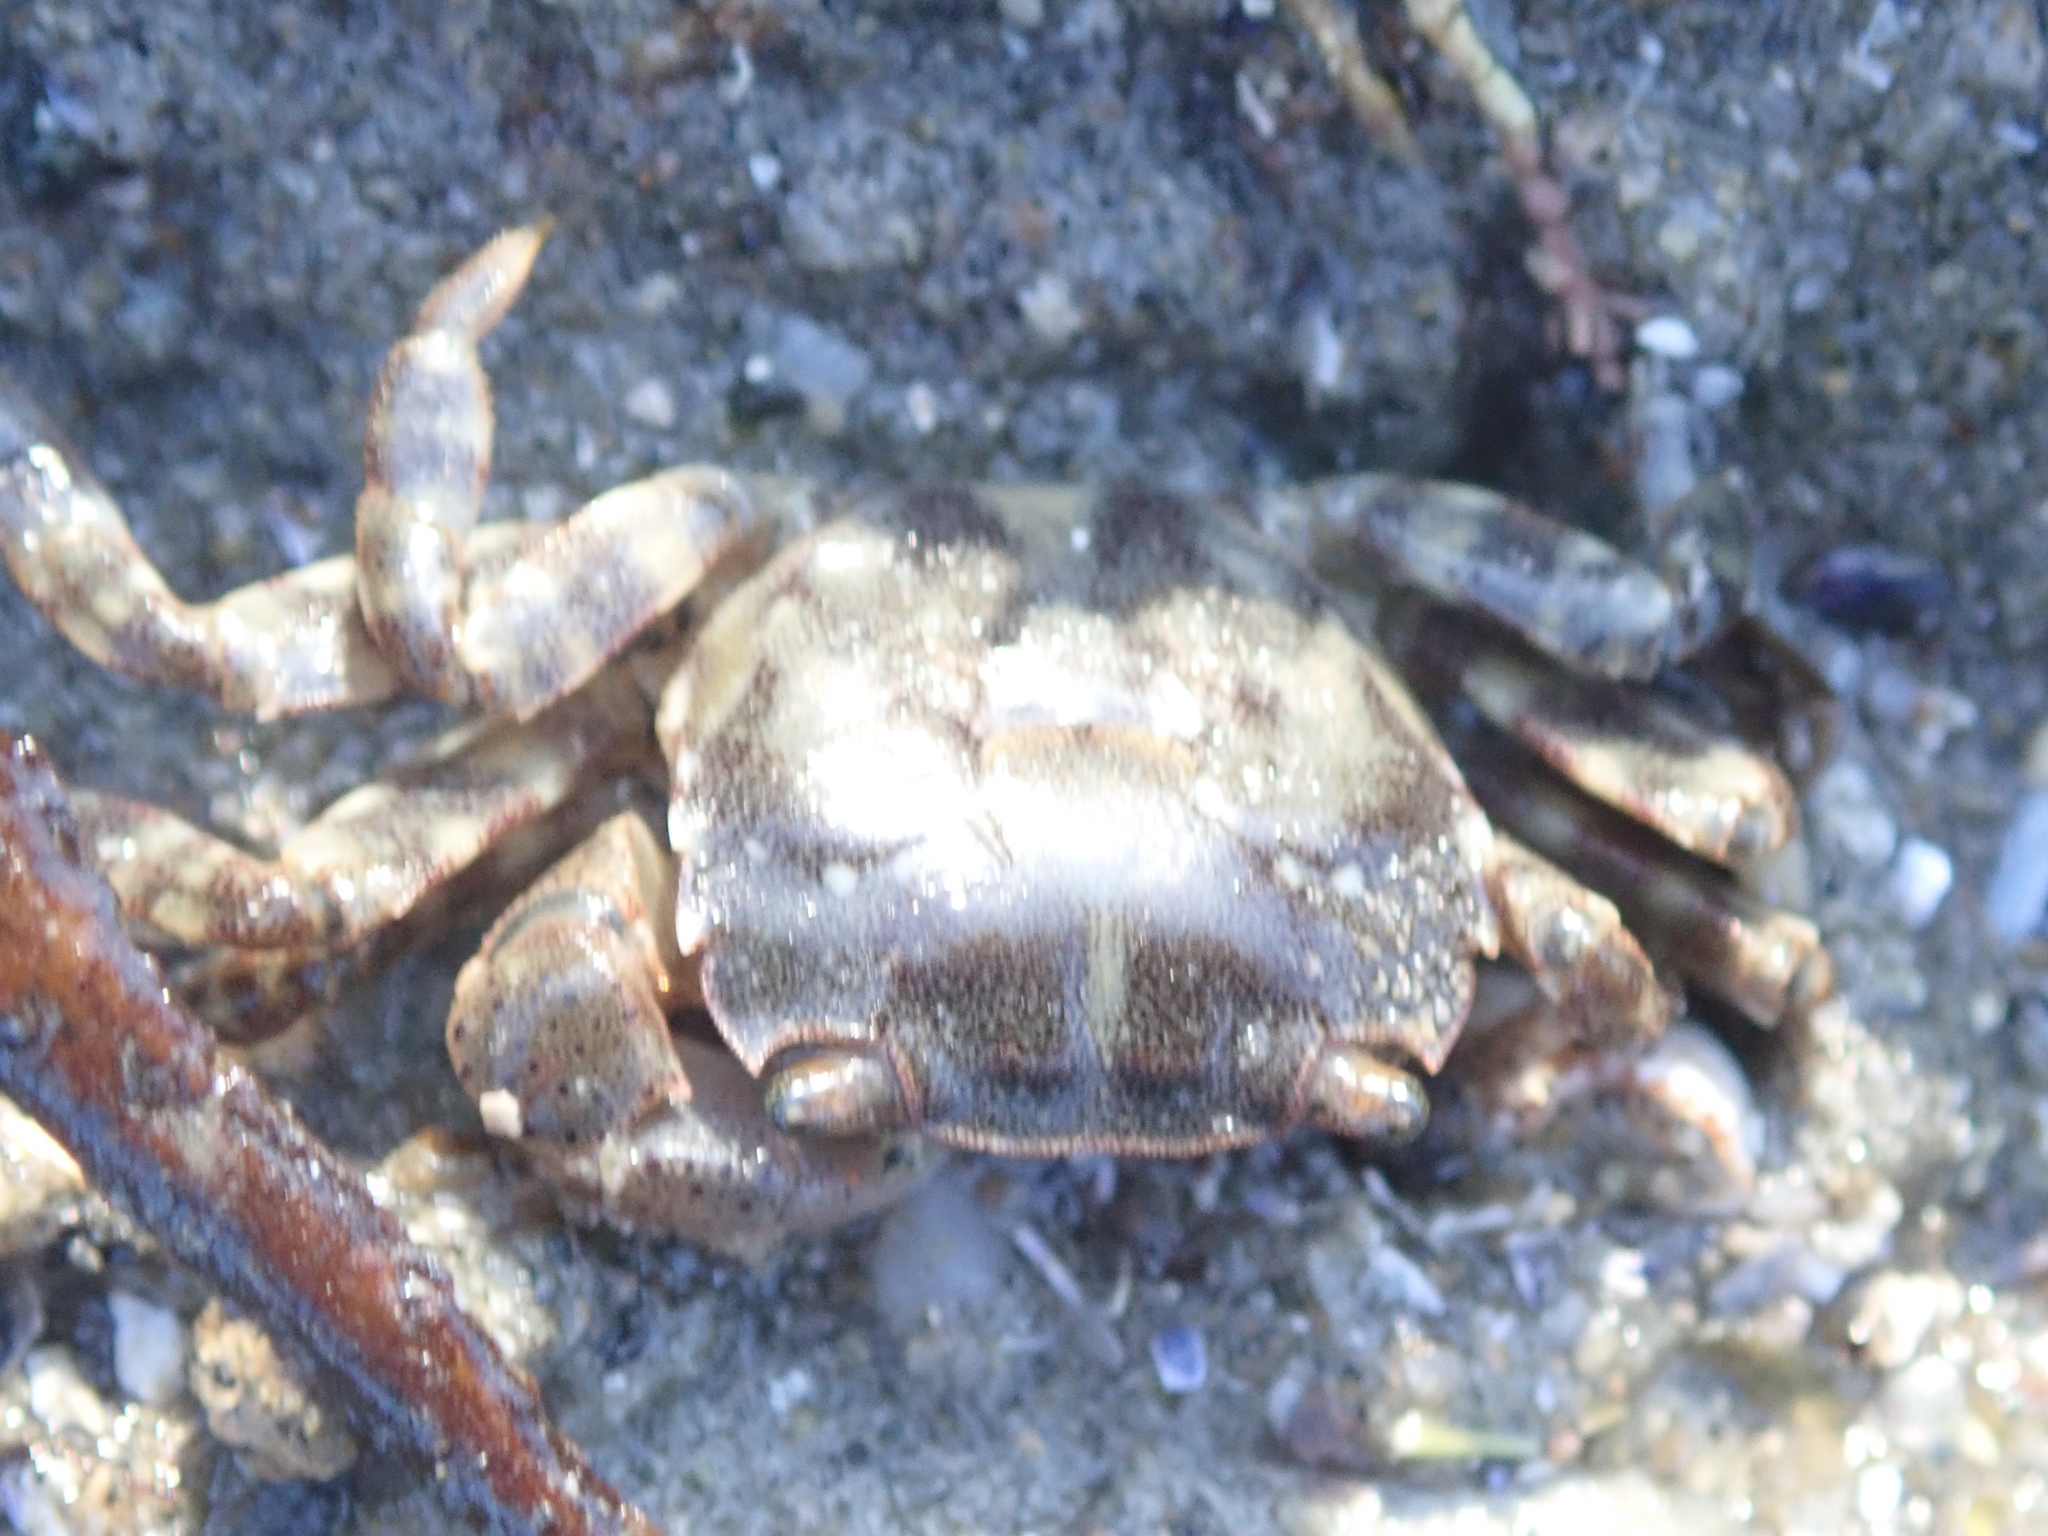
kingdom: Animalia
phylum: Arthropoda
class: Malacostraca
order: Decapoda
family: Varunidae
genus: Hemigrapsus
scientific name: Hemigrapsus sanguineus
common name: Asian shore crab
